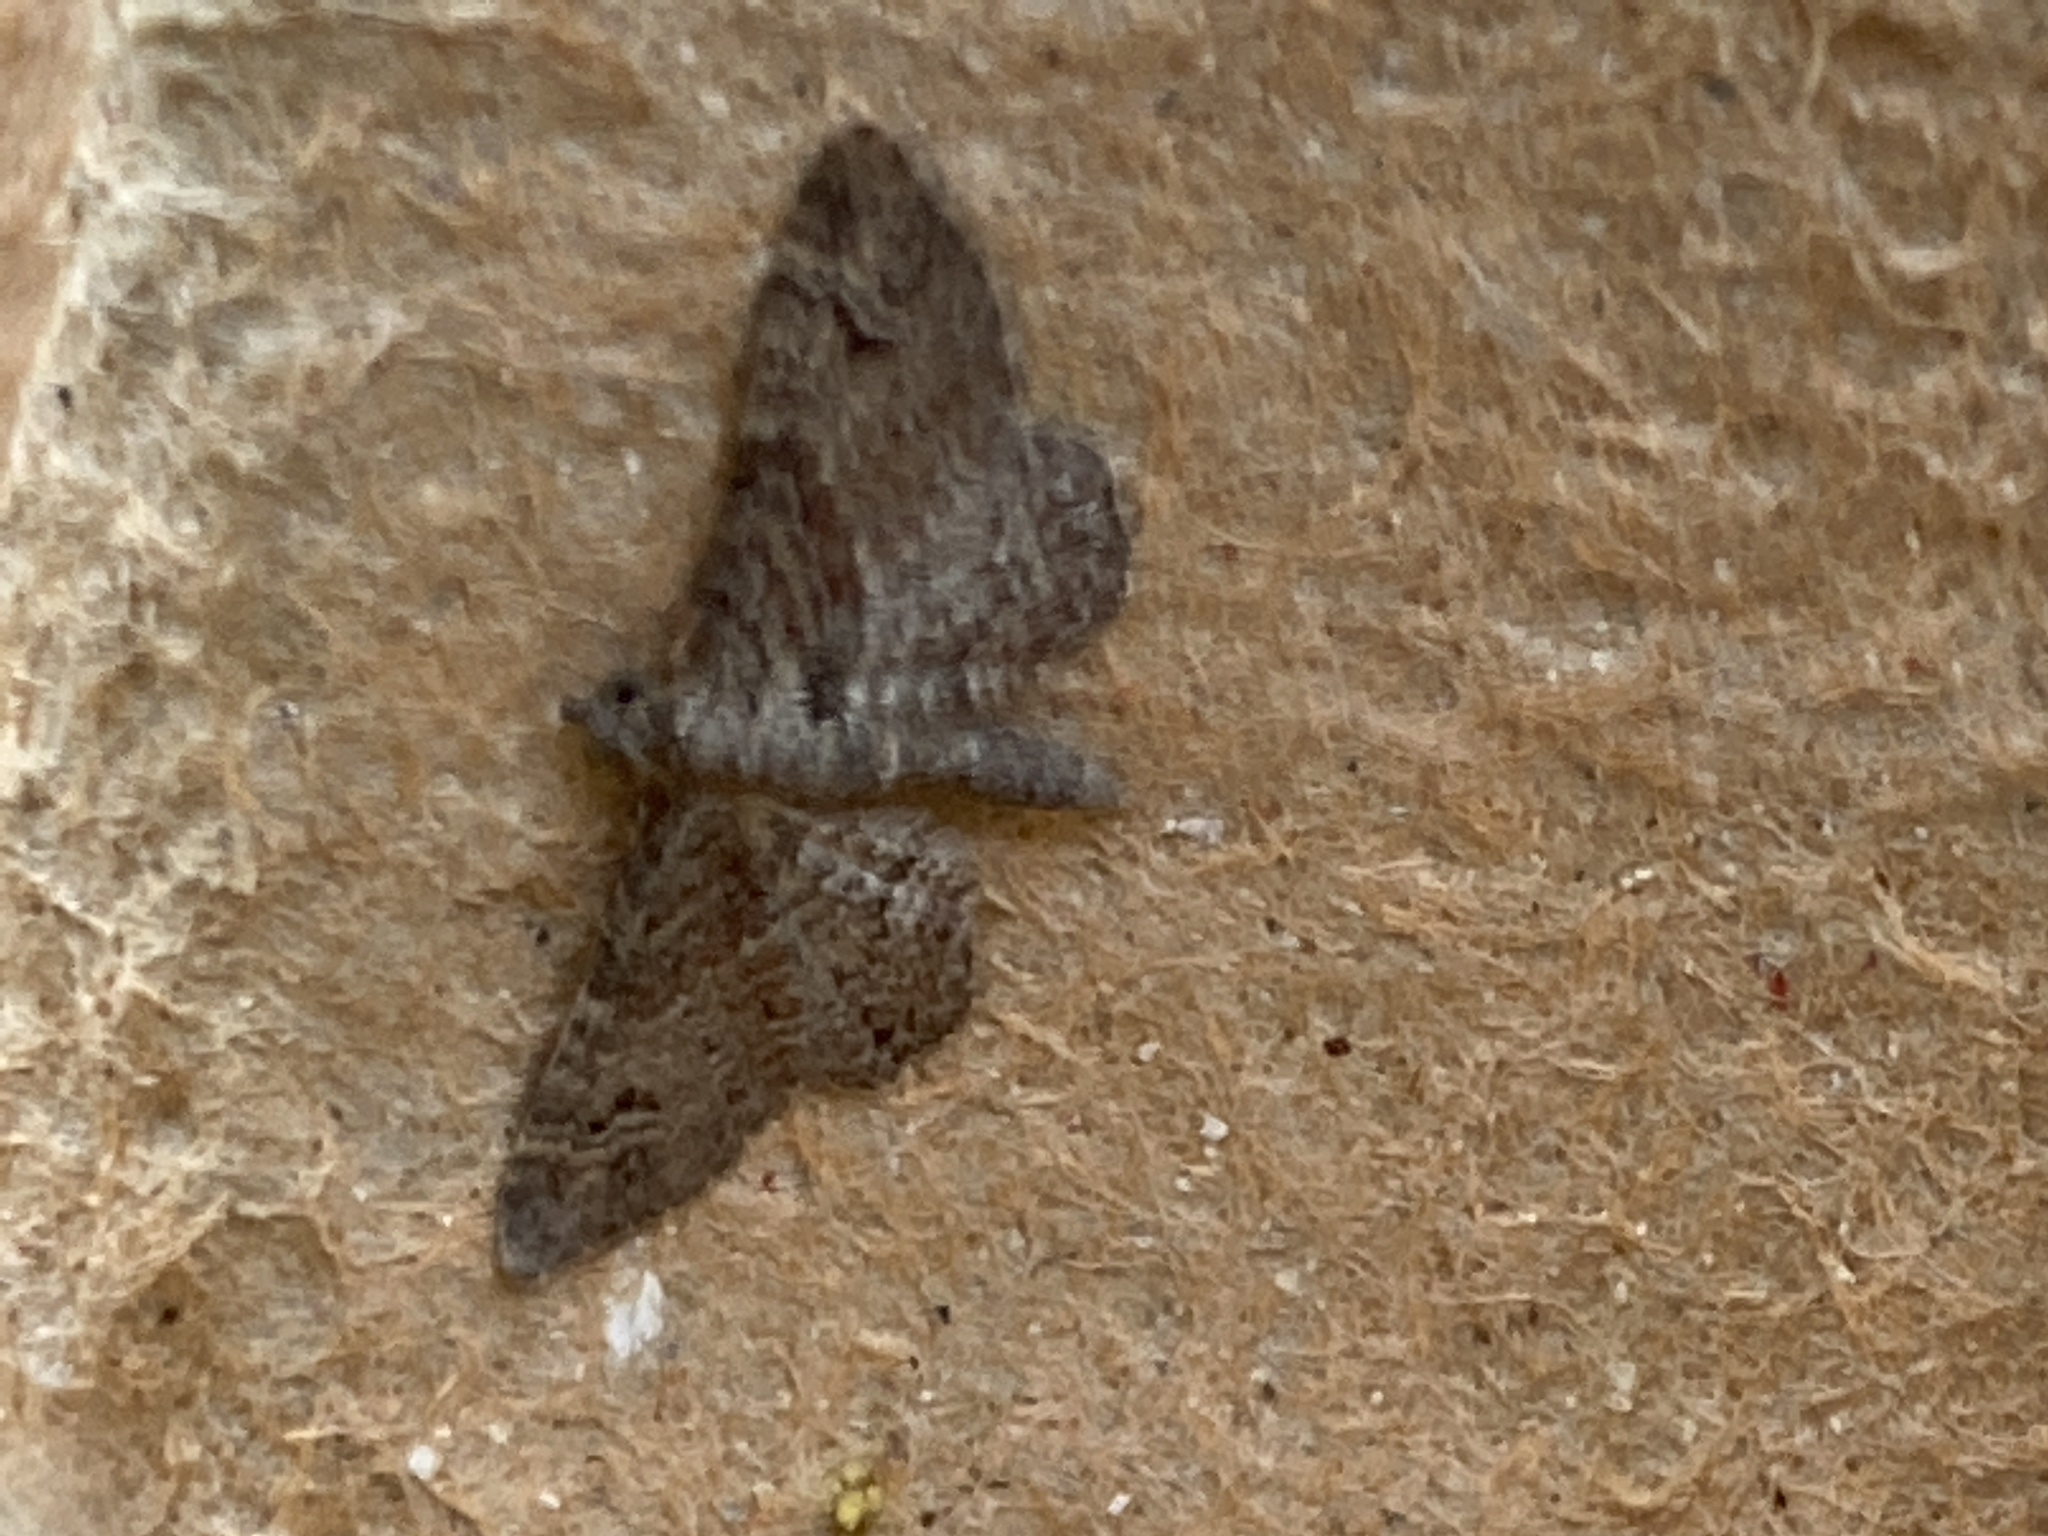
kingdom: Animalia
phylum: Arthropoda
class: Insecta
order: Lepidoptera
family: Geometridae
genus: Gymnoscelis
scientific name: Gymnoscelis rufifasciata
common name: Double-striped pug
